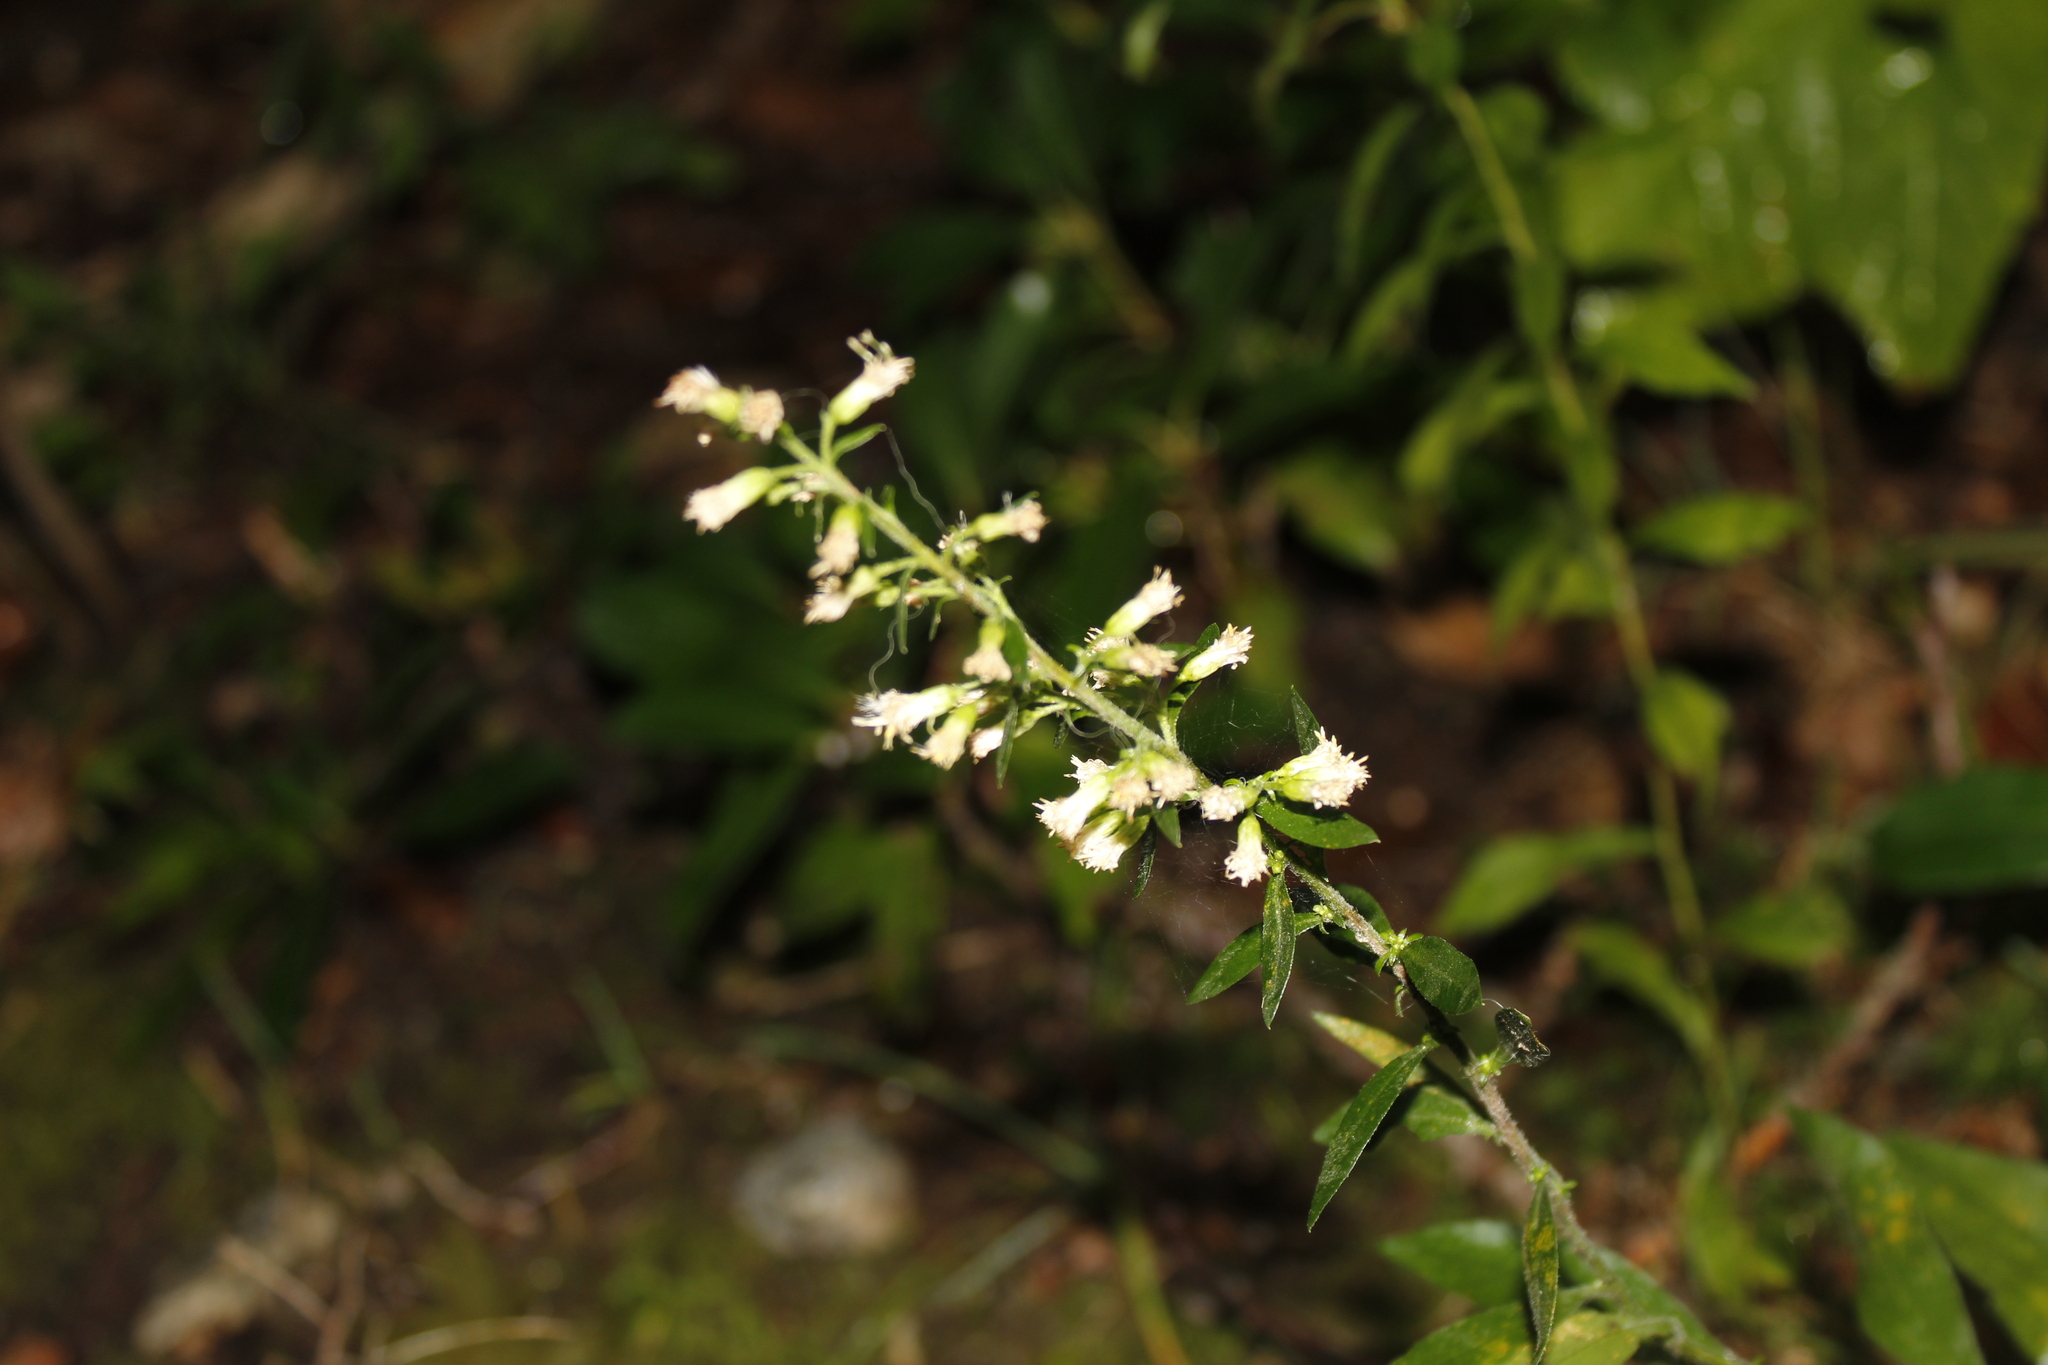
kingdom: Plantae
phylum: Tracheophyta
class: Magnoliopsida
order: Asterales
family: Asteraceae
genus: Solidago
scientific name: Solidago bicolor
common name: Silverrod
